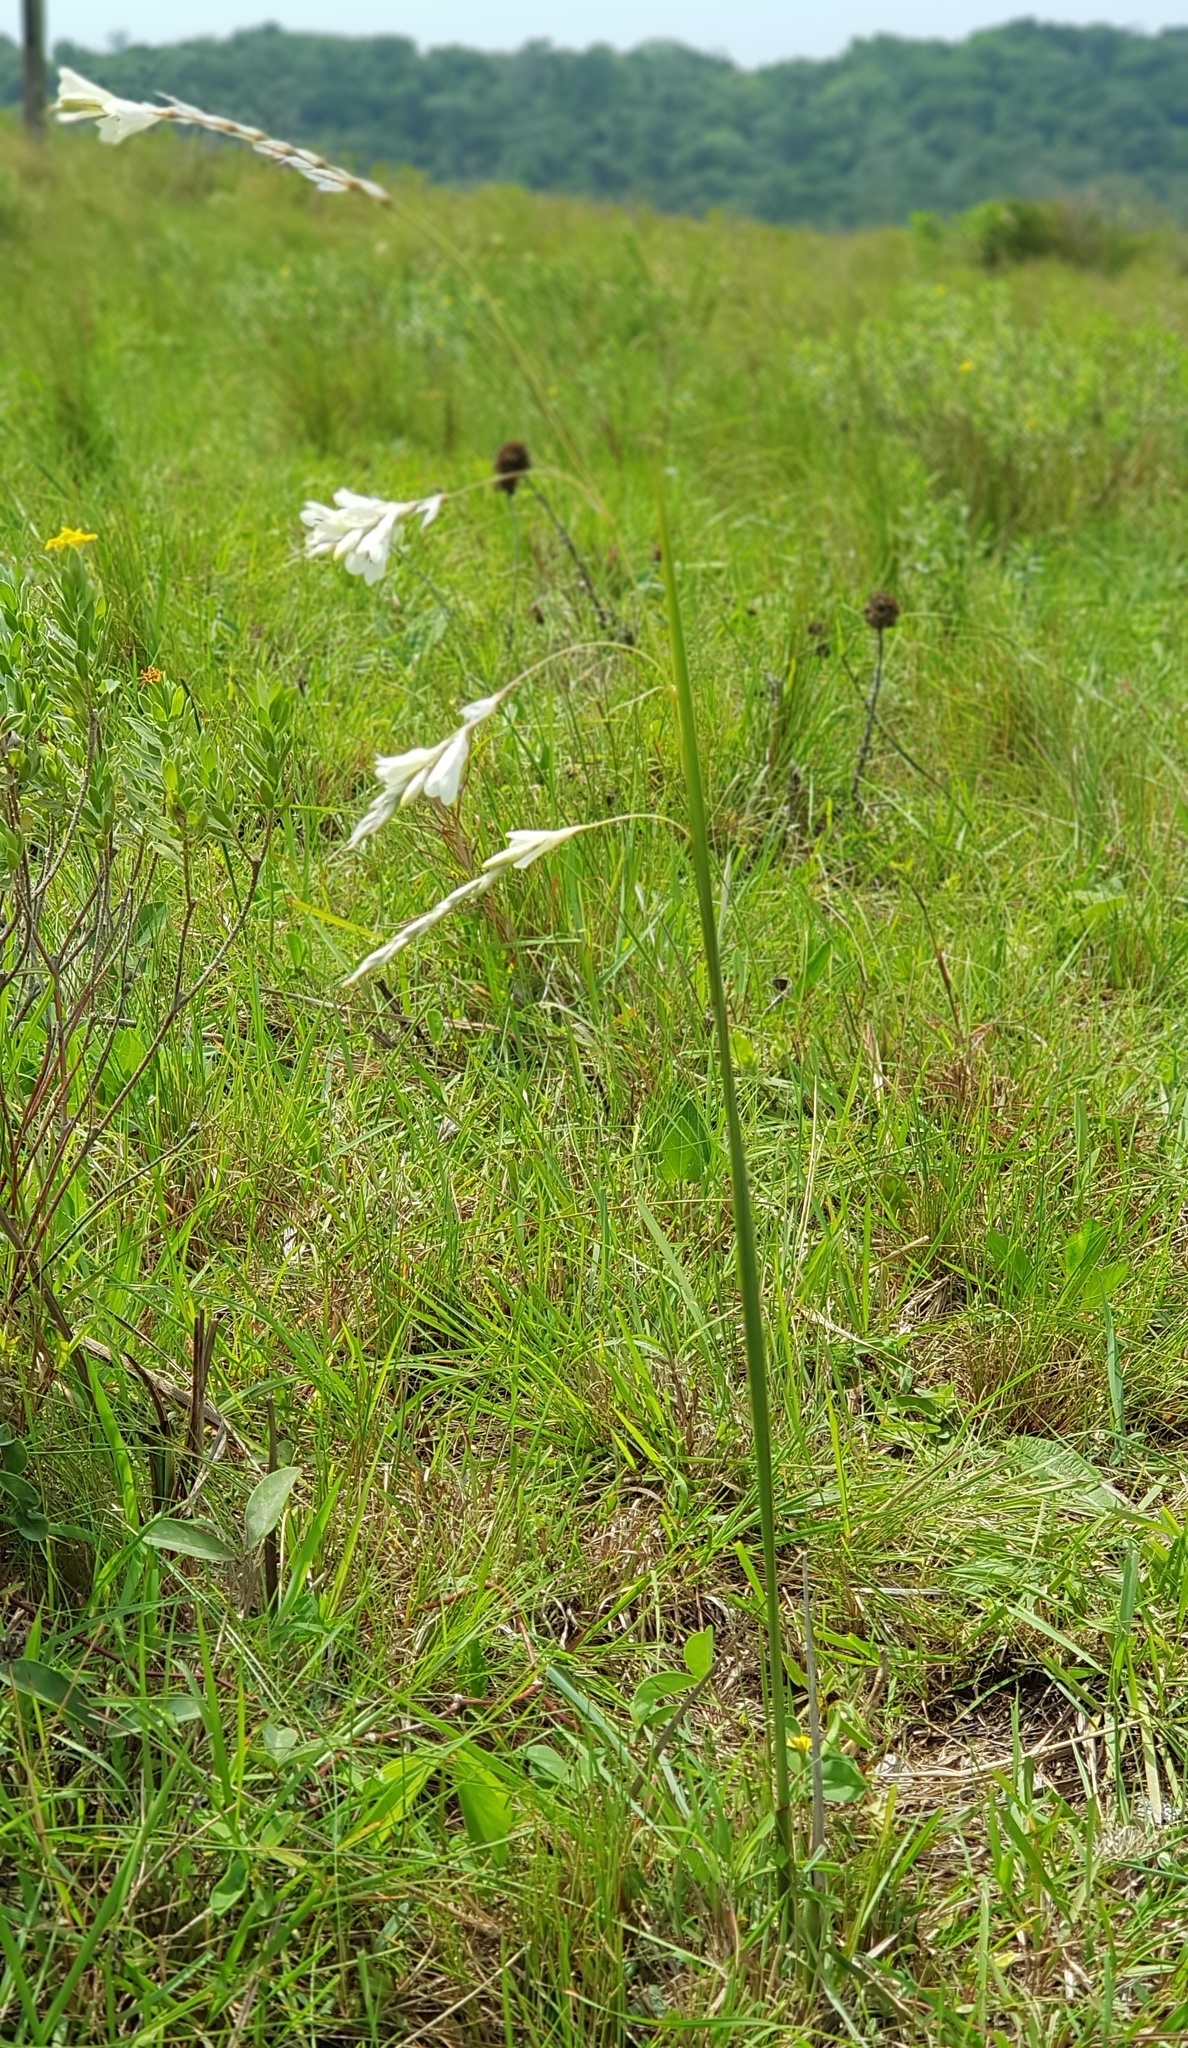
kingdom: Plantae
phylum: Tracheophyta
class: Liliopsida
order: Asparagales
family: Iridaceae
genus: Dierama
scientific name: Dierama sertum
